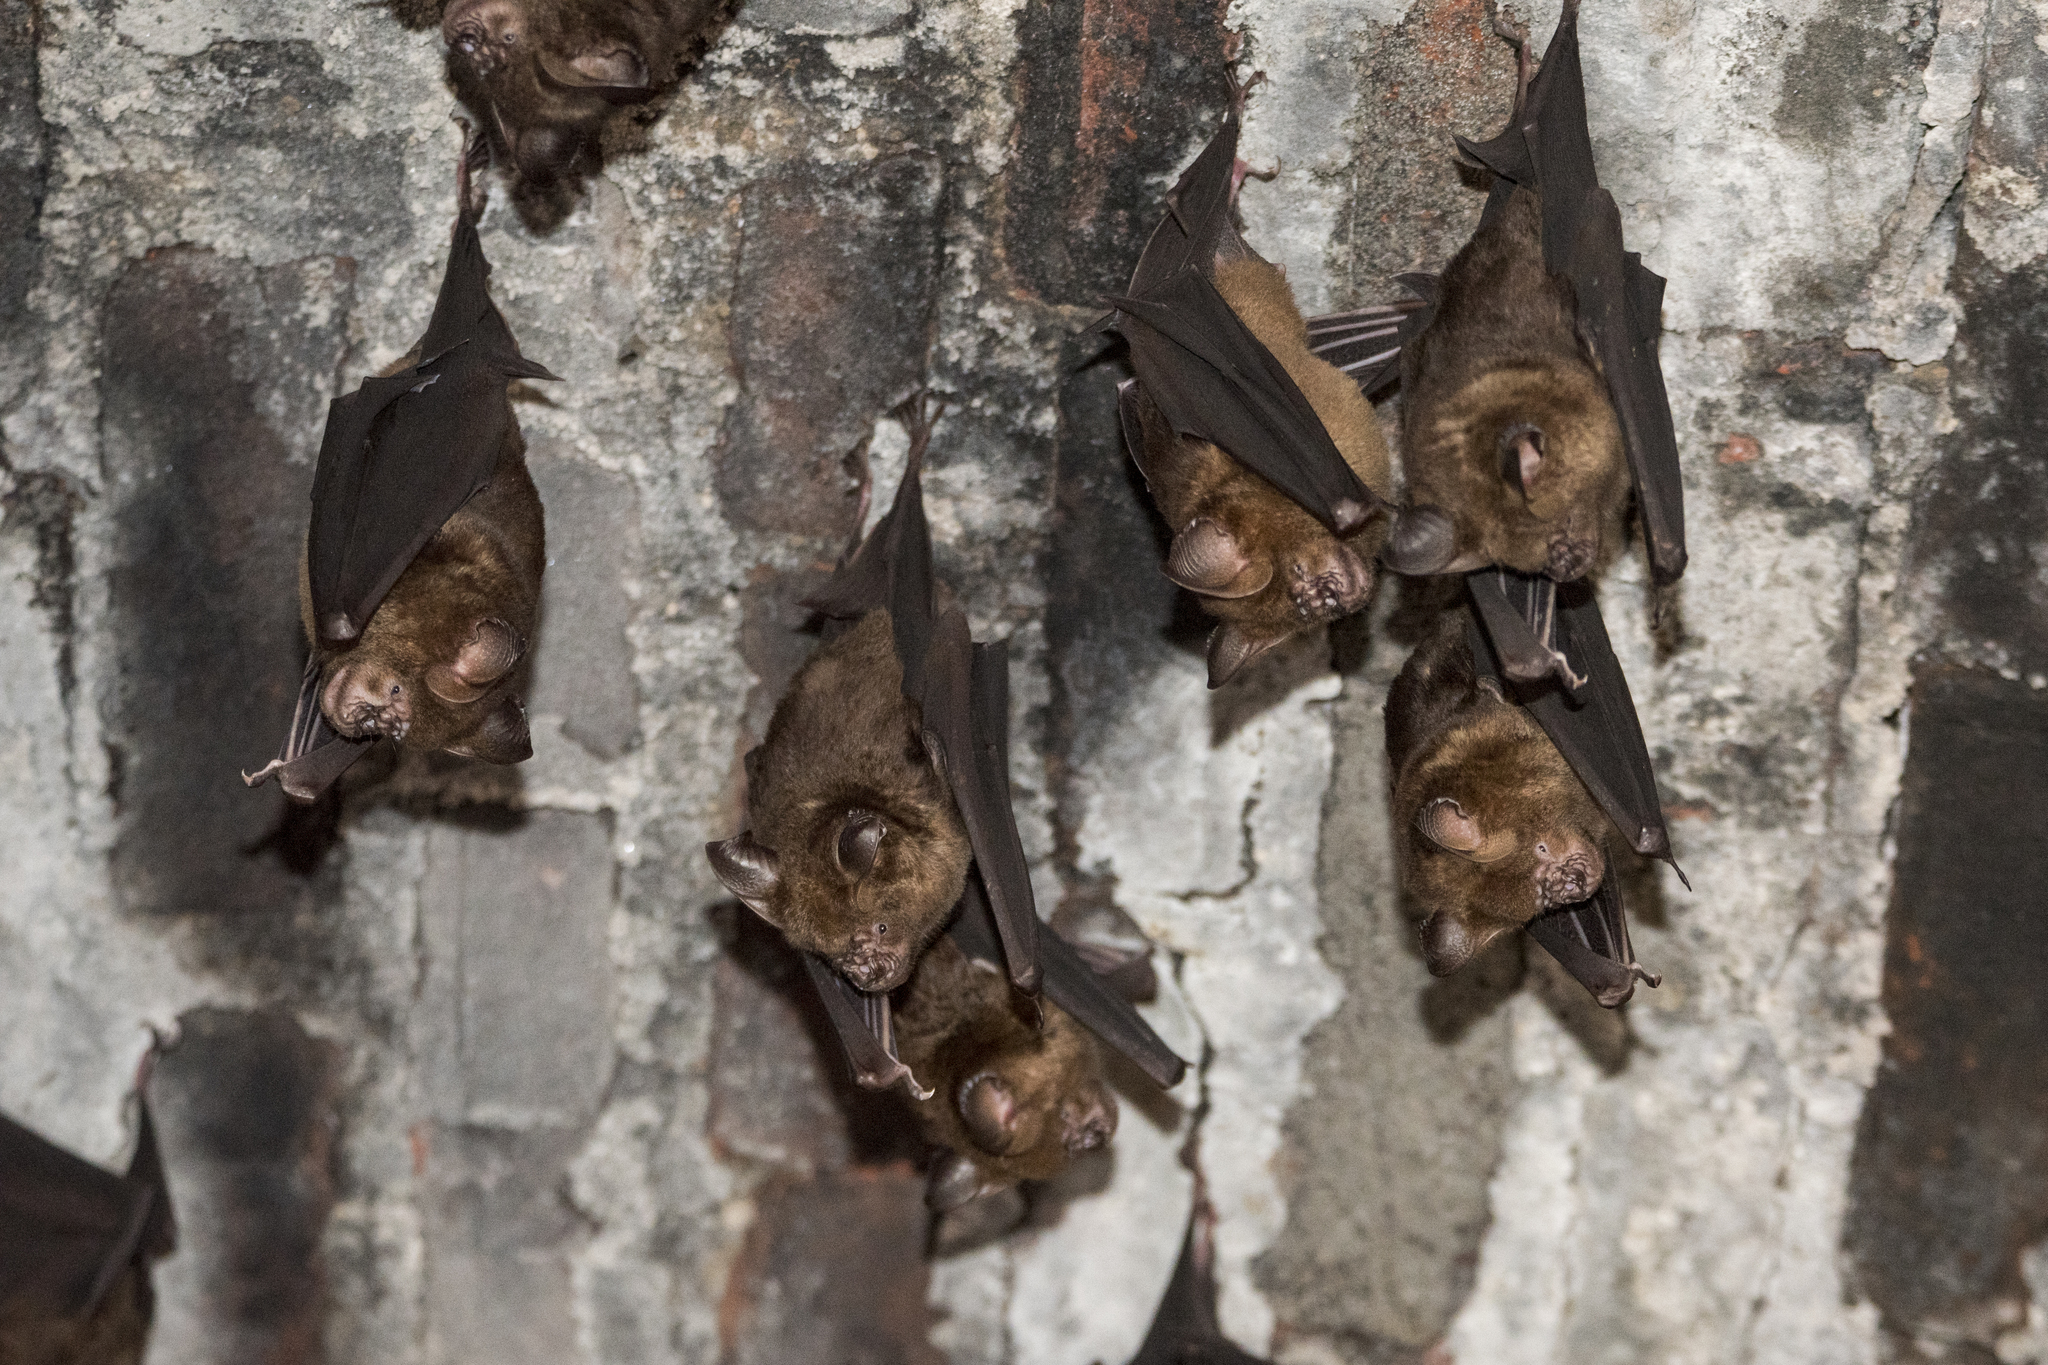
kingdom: Animalia
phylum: Chordata
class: Mammalia
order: Chiroptera
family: Hipposideridae
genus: Hipposideros
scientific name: Hipposideros armiger
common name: Great leaf-nosed bat
